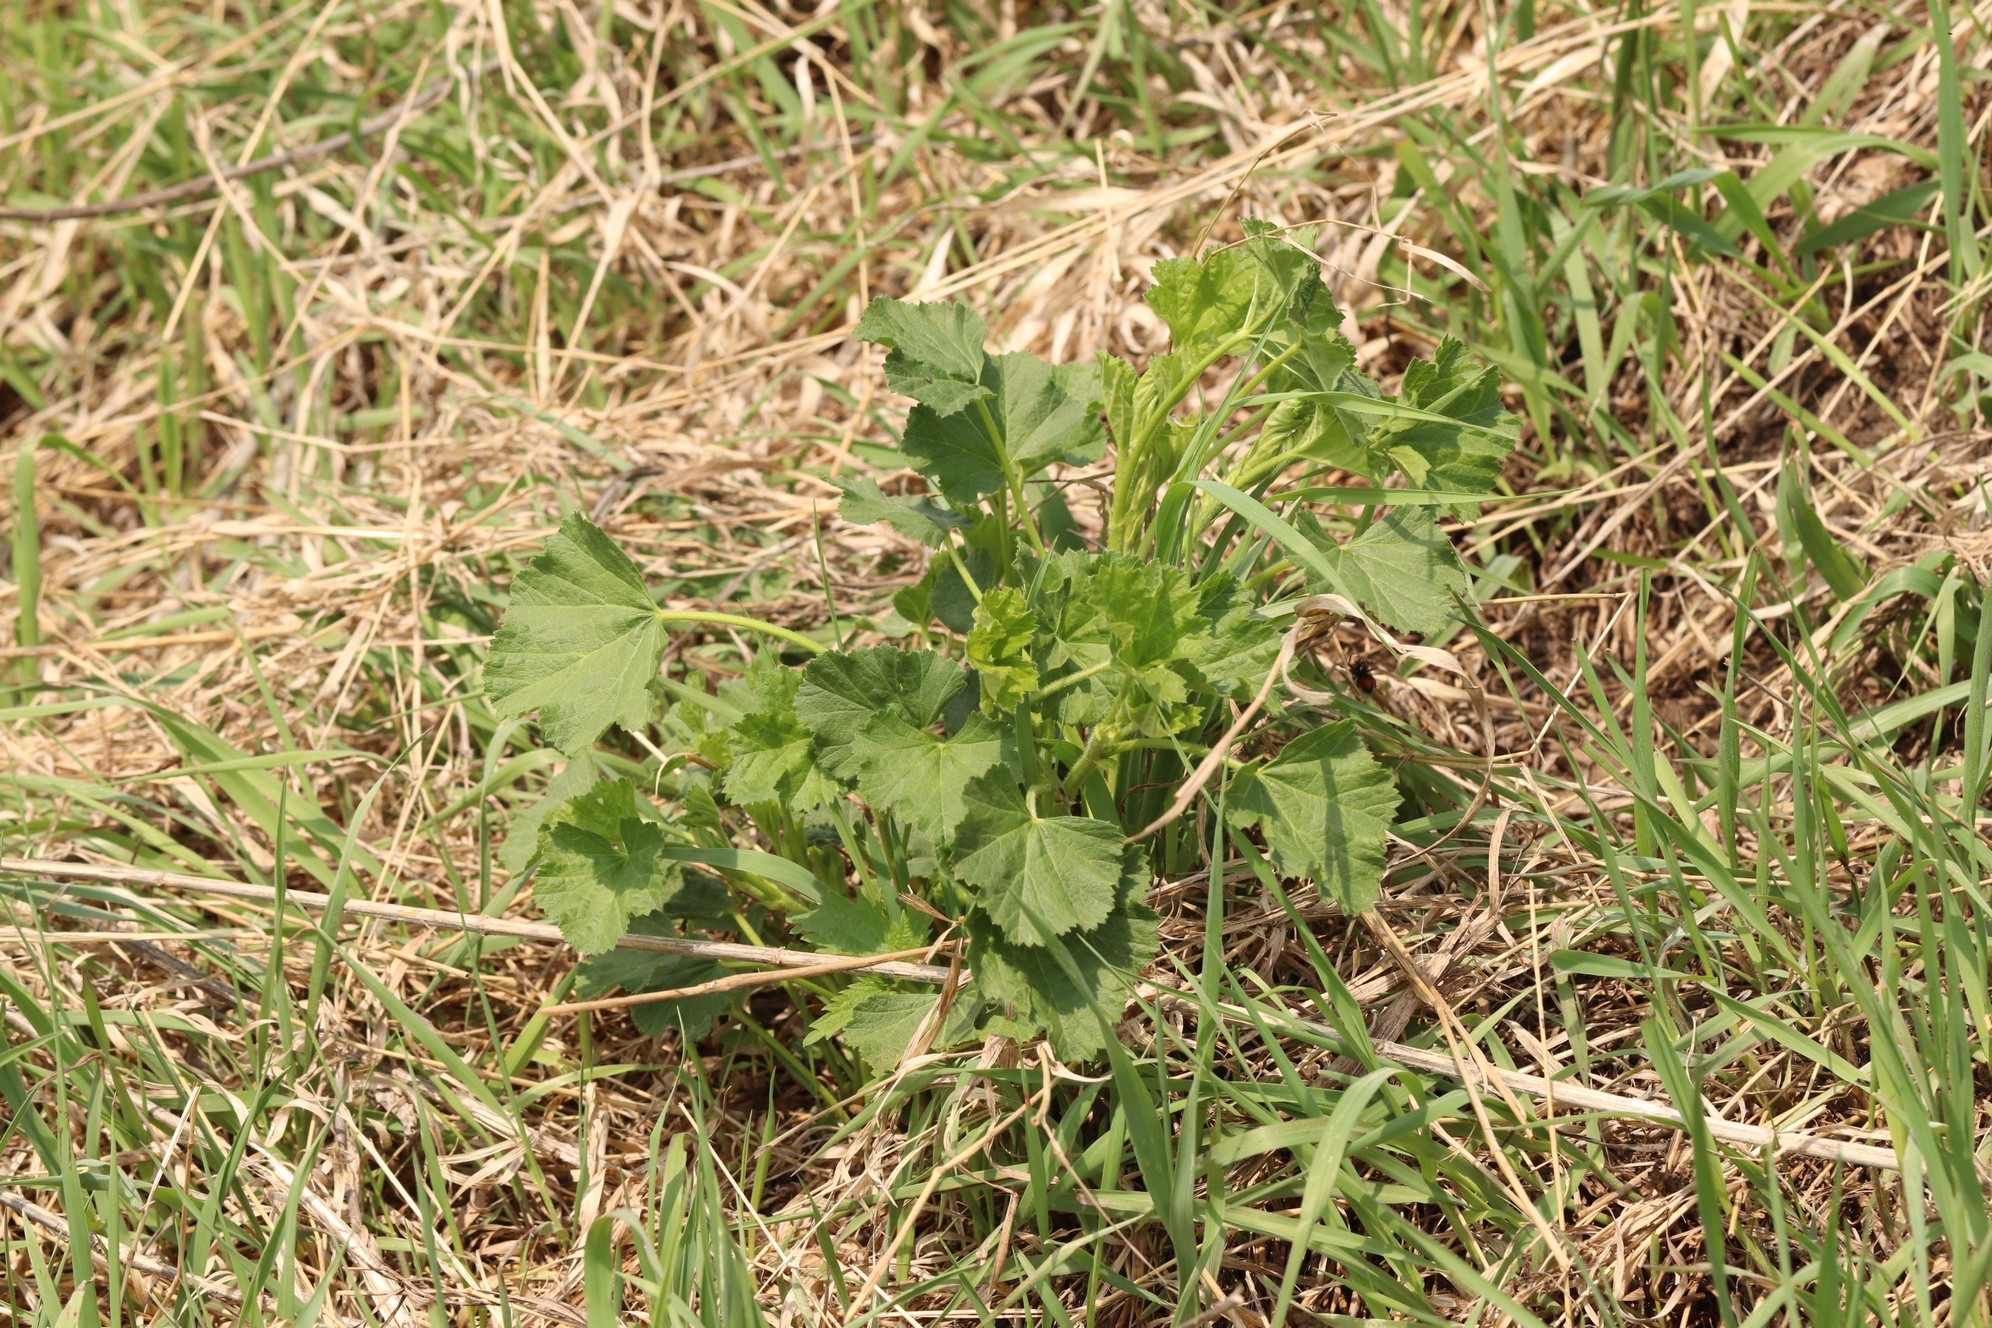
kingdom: Plantae
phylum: Tracheophyta
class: Magnoliopsida
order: Malvales
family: Malvaceae
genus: Malva
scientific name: Malva thuringiaca
